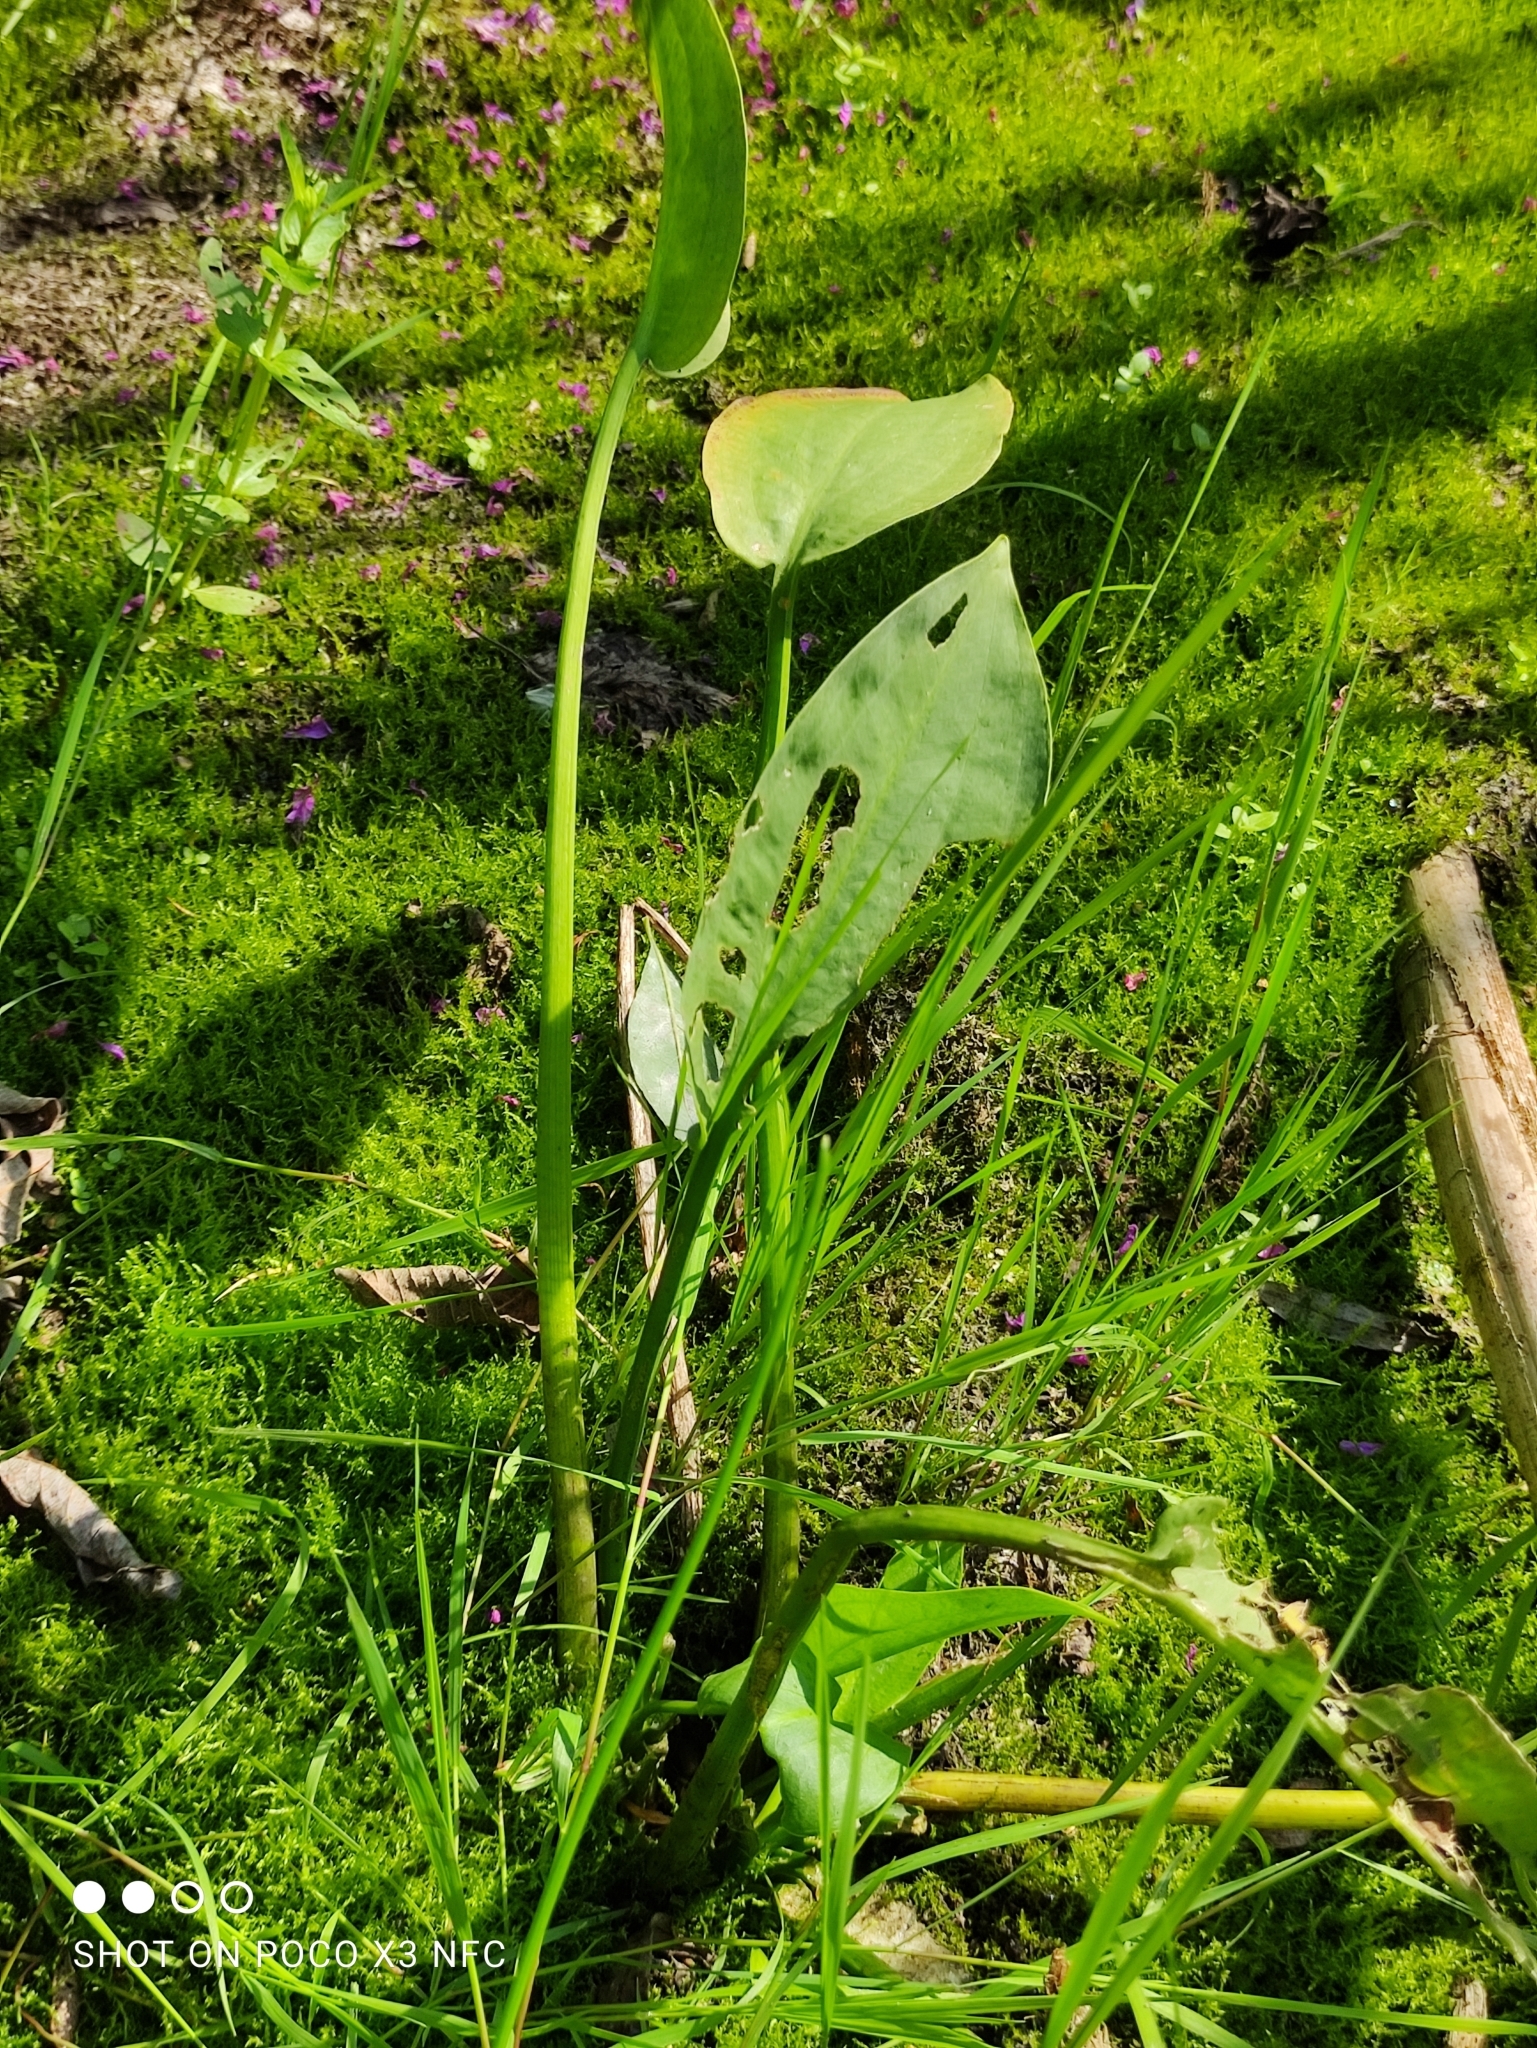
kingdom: Plantae
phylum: Tracheophyta
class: Liliopsida
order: Alismatales
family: Alismataceae
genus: Alisma
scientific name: Alisma plantago-aquatica
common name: Water-plantain
